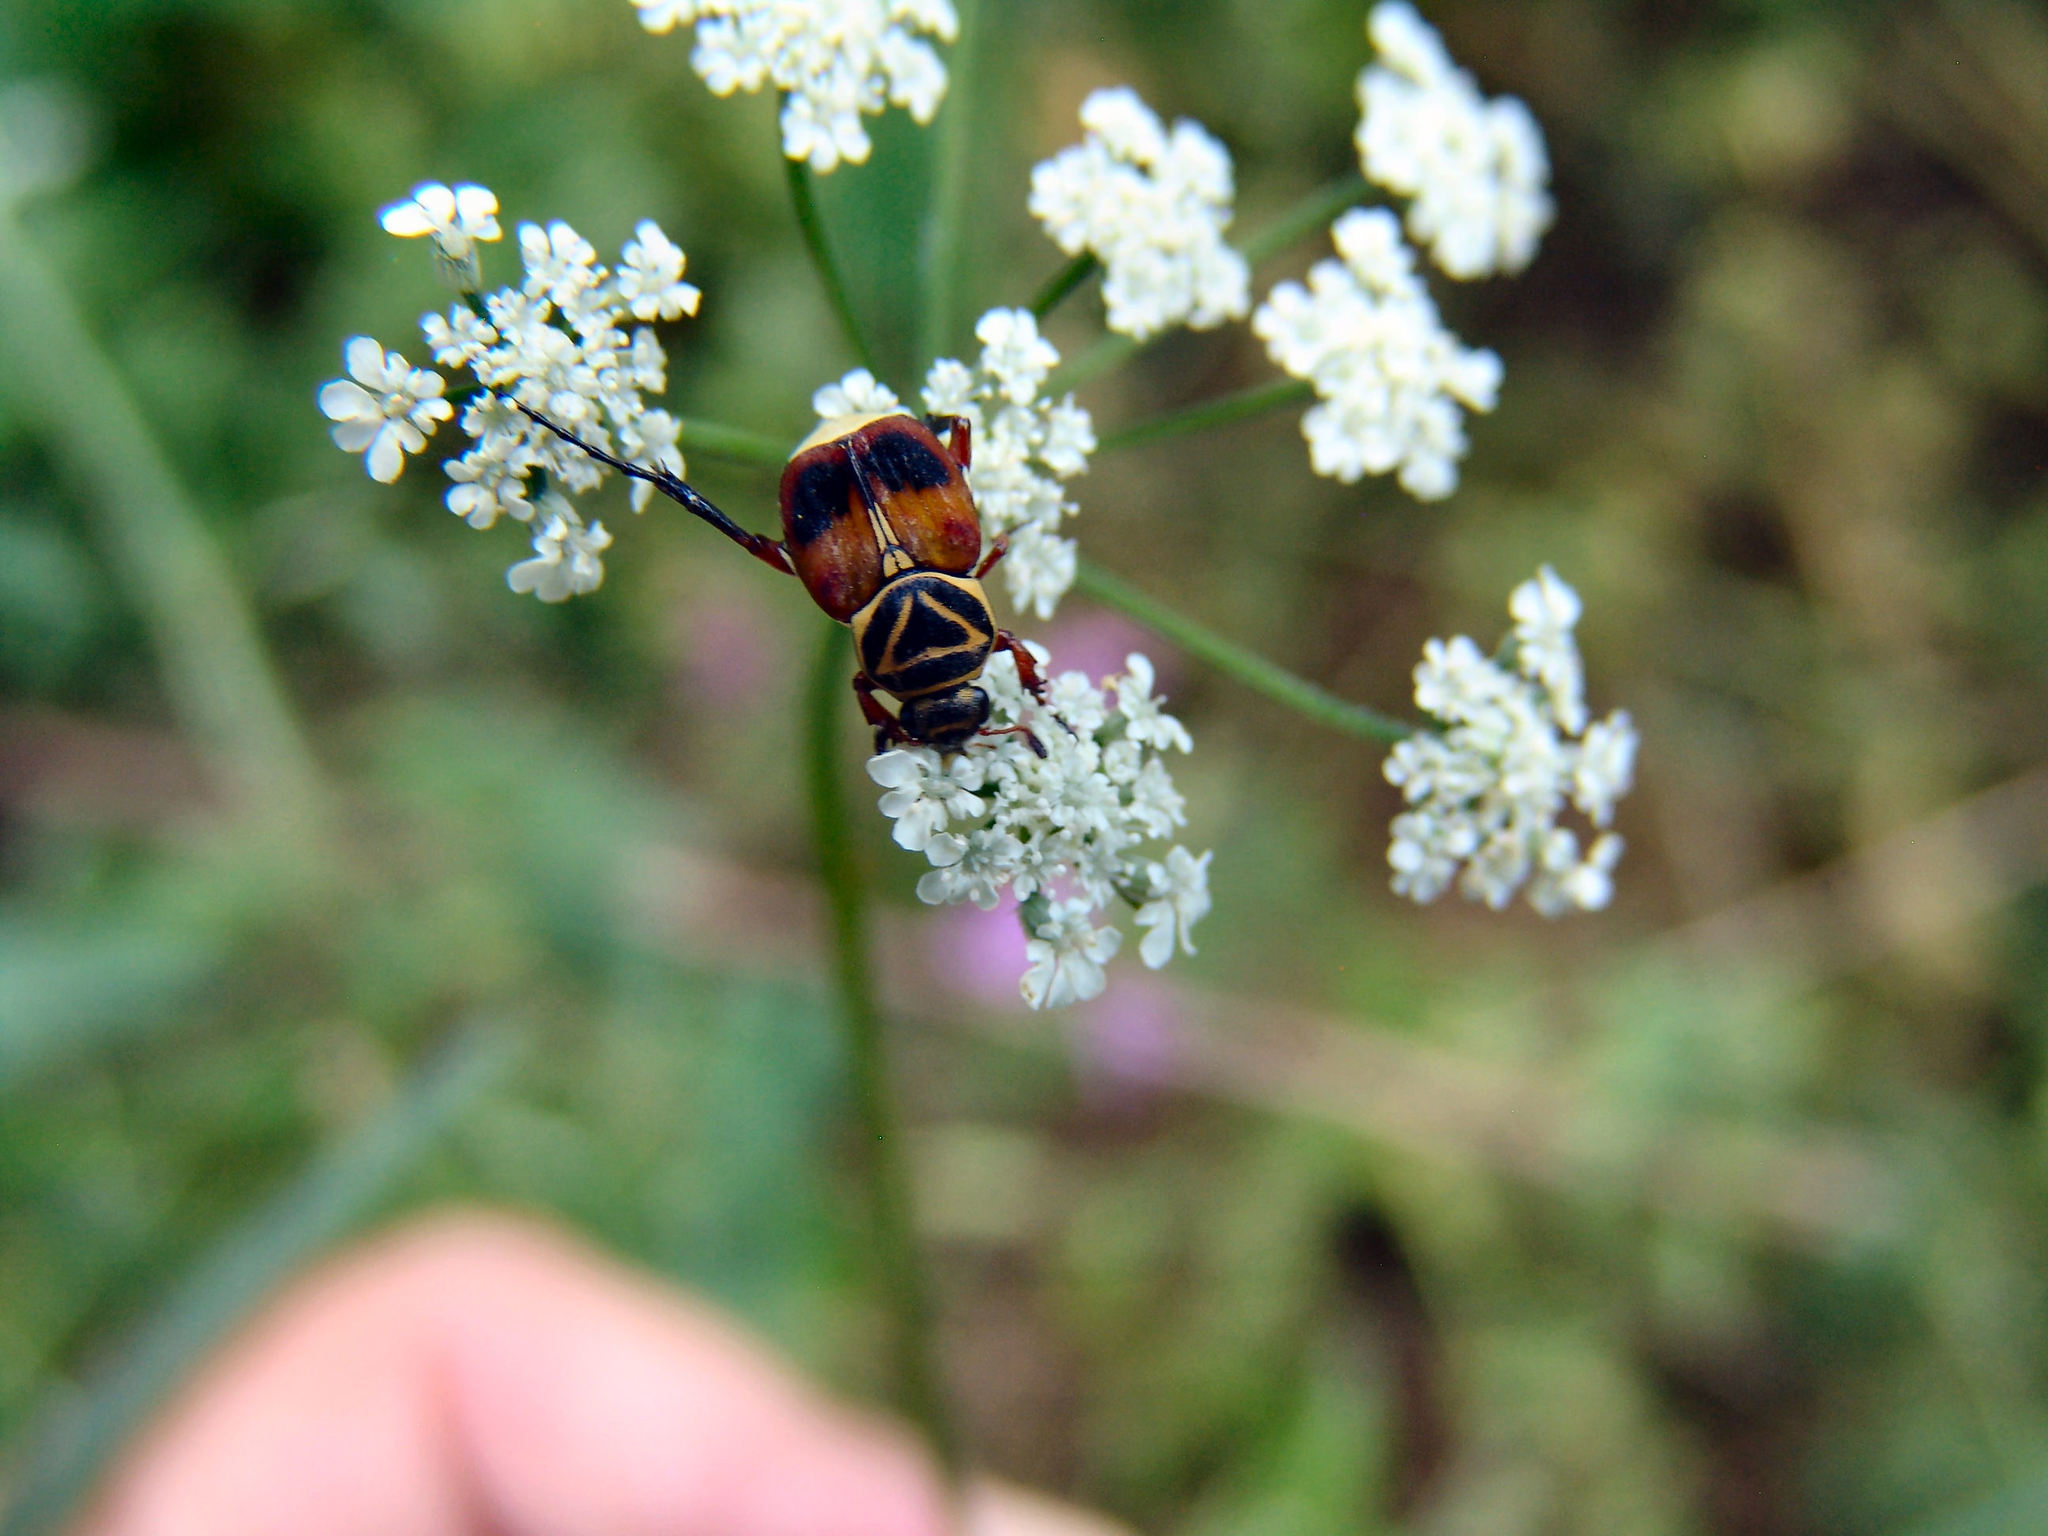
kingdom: Animalia
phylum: Arthropoda
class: Insecta
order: Coleoptera
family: Scarabaeidae
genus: Trigonopeltastes
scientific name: Trigonopeltastes delta
